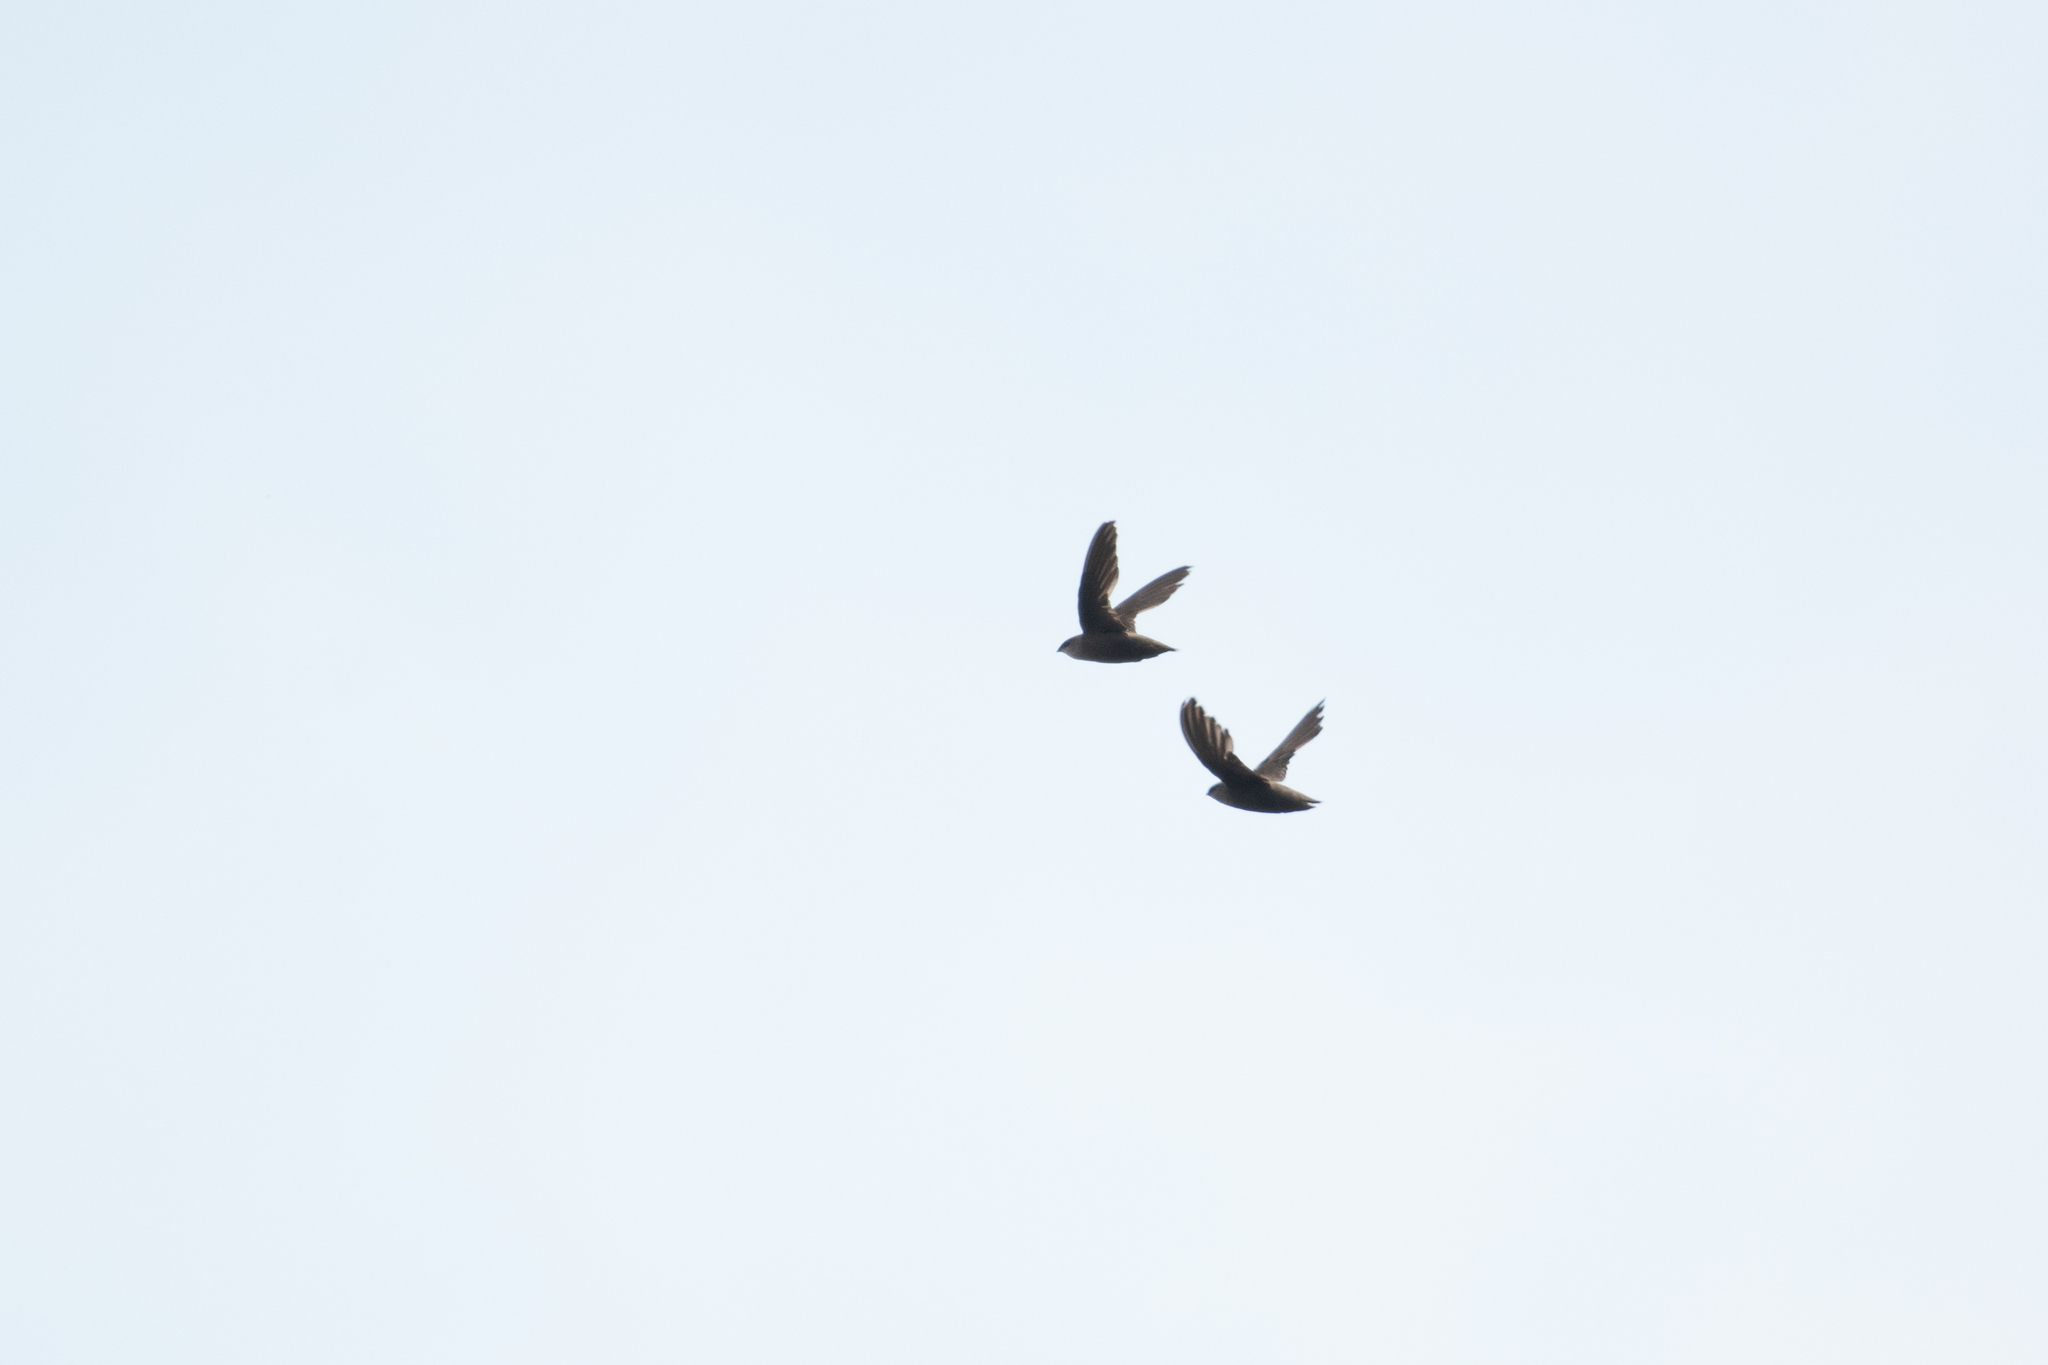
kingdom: Animalia
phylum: Chordata
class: Aves
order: Apodiformes
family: Apodidae
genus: Chaetura
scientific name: Chaetura pelagica
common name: Chimney swift
